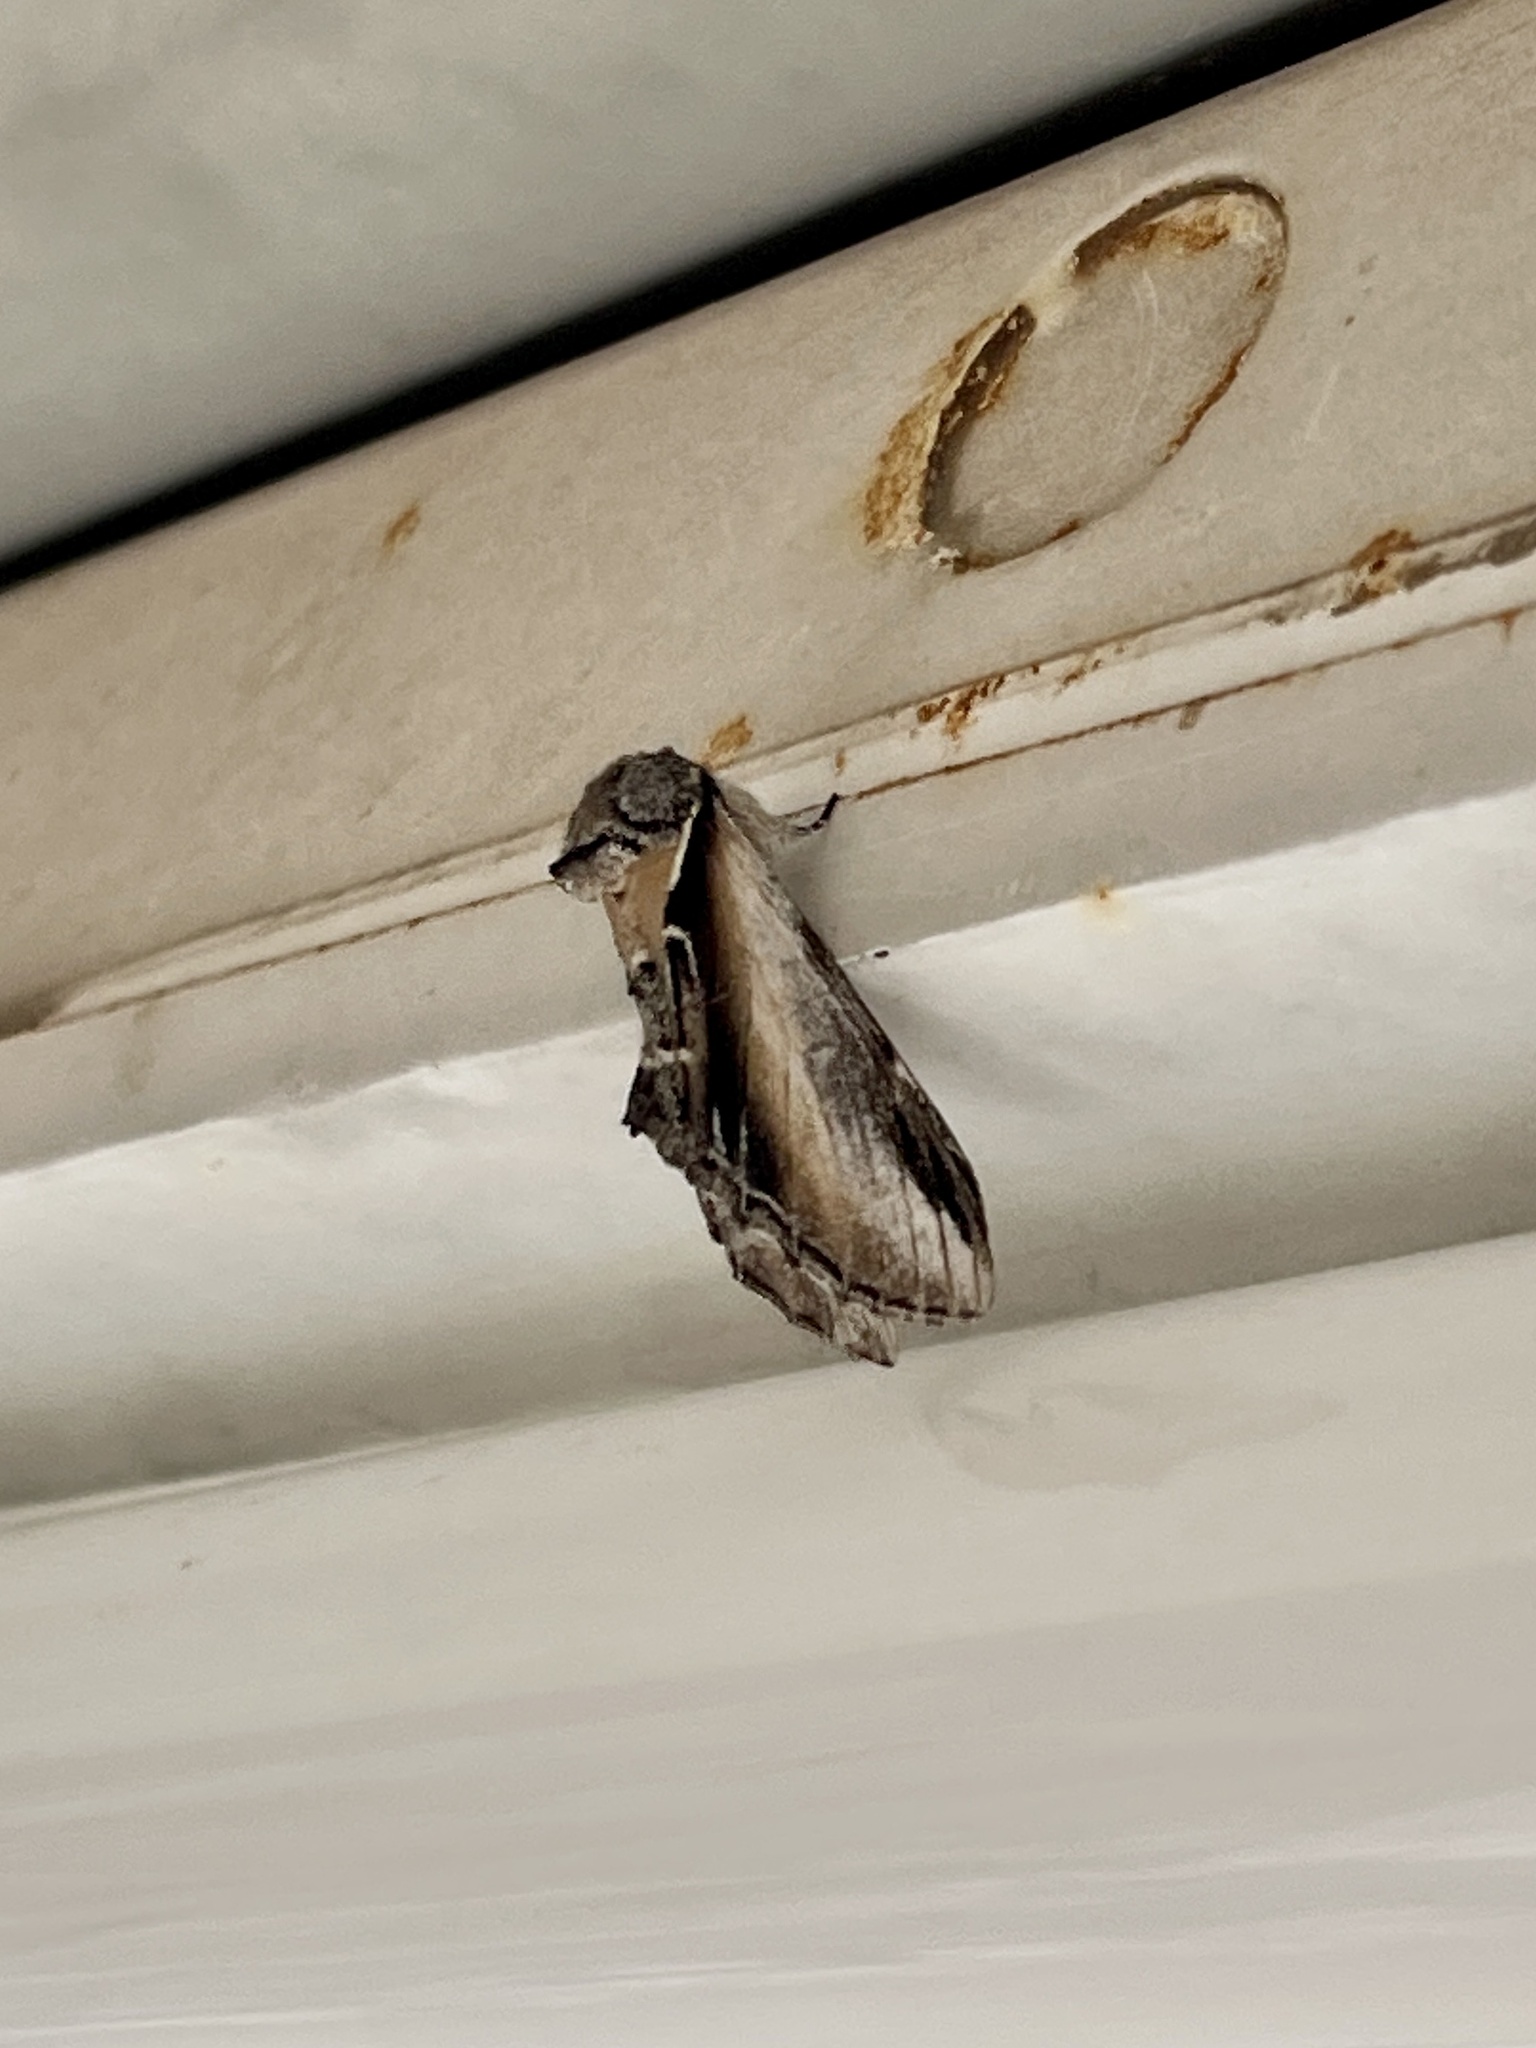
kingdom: Animalia
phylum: Arthropoda
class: Insecta
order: Lepidoptera
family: Notodontidae
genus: Pheosia
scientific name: Pheosia rimosa
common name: Black-rimmed prominent
